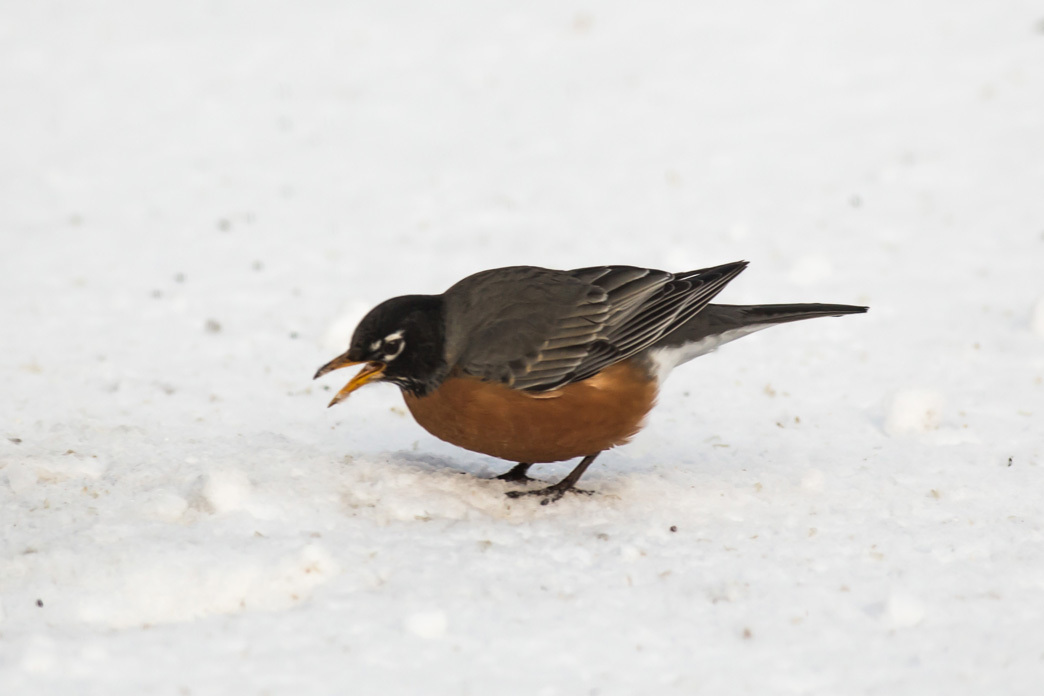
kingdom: Animalia
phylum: Chordata
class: Aves
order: Passeriformes
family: Turdidae
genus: Turdus
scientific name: Turdus migratorius
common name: American robin
